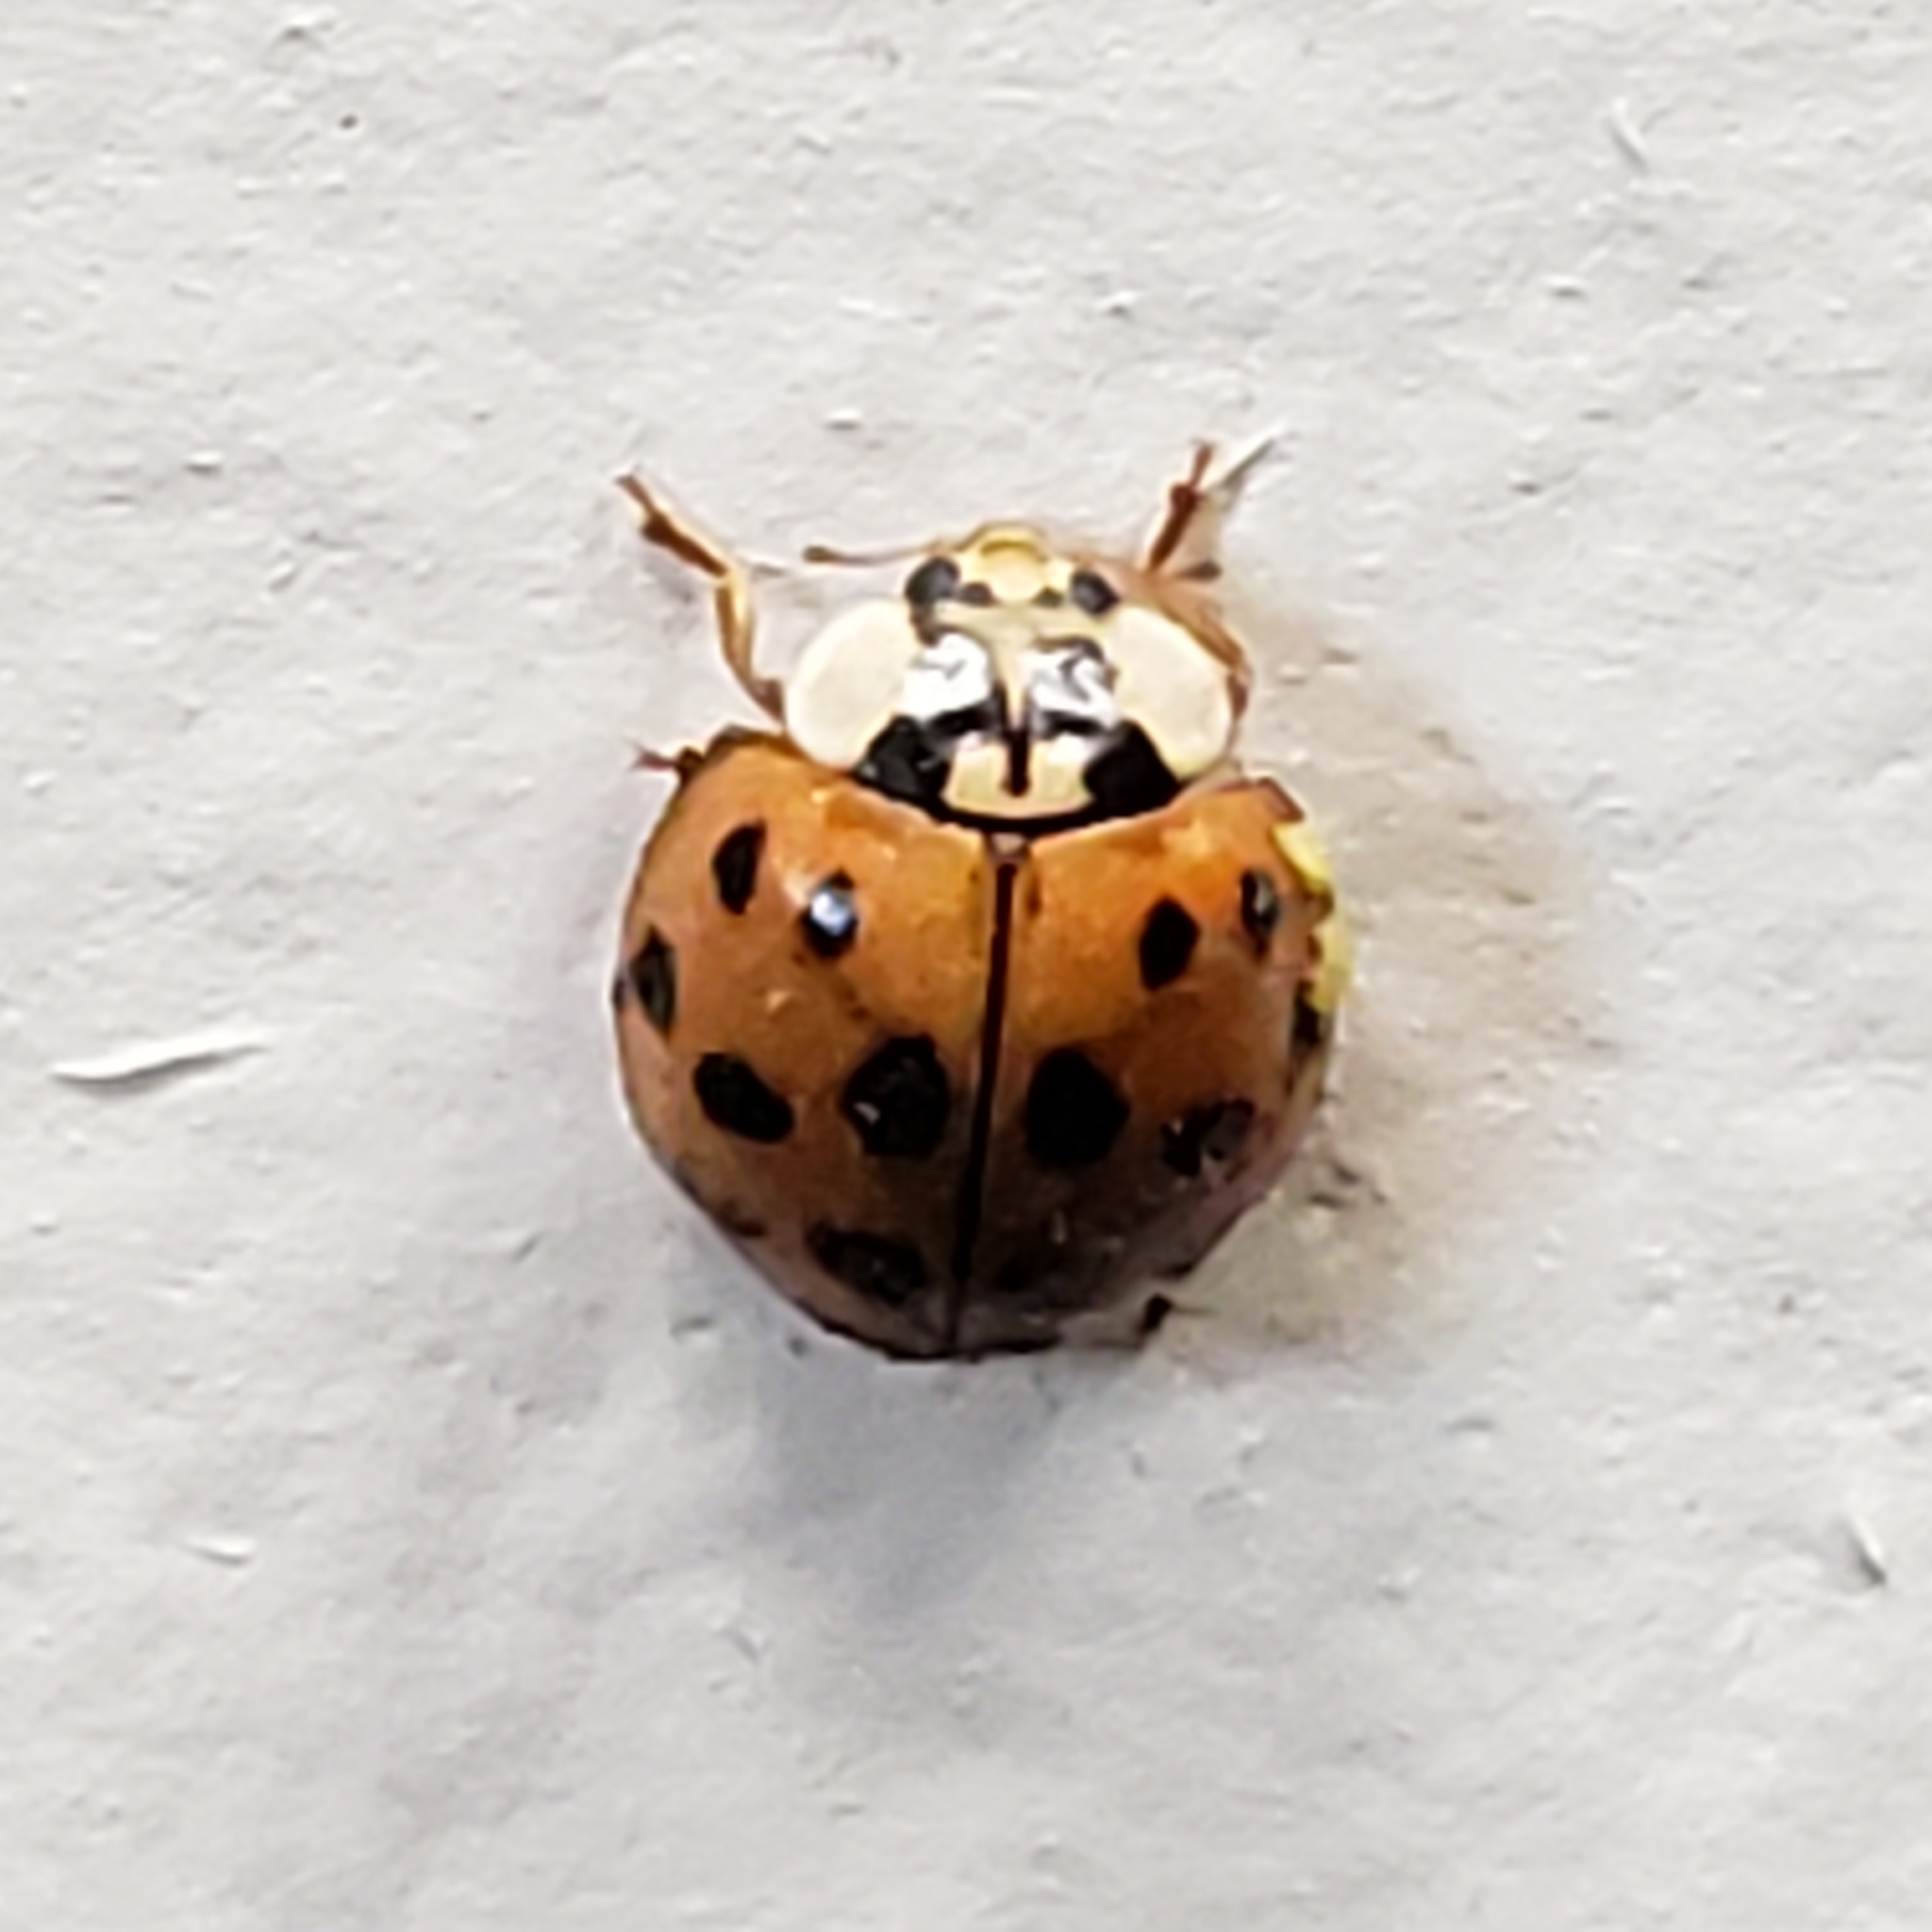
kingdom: Animalia
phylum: Arthropoda
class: Insecta
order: Coleoptera
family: Coccinellidae
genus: Harmonia
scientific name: Harmonia axyridis
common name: Harlequin ladybird
